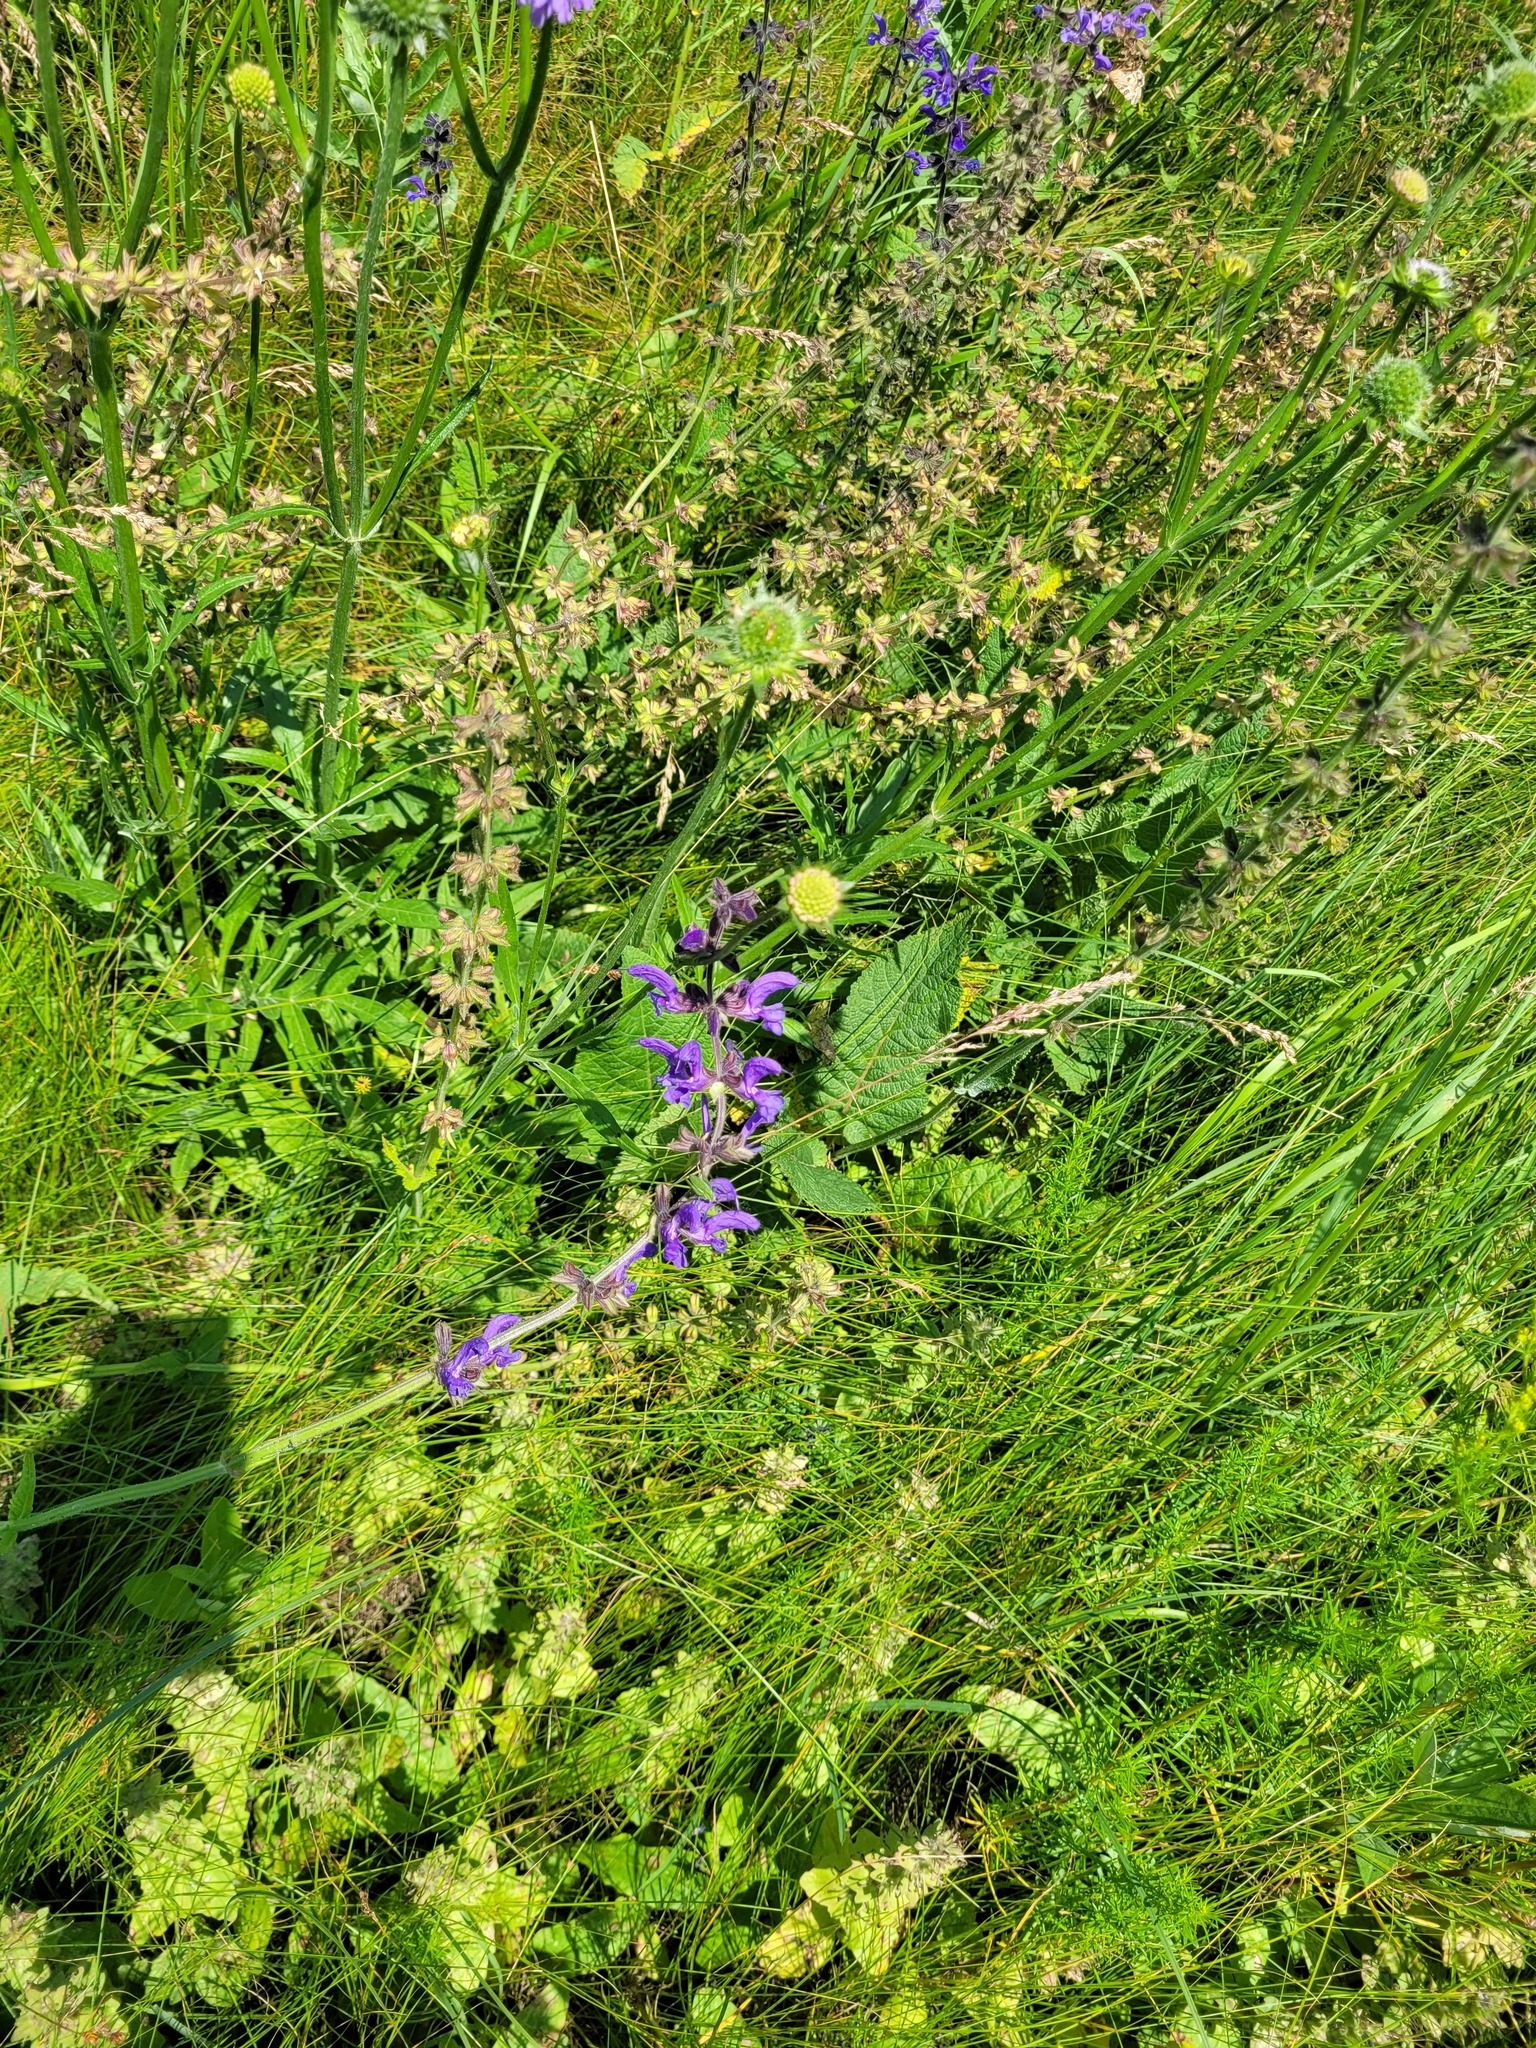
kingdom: Plantae
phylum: Tracheophyta
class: Magnoliopsida
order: Lamiales
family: Lamiaceae
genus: Salvia
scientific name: Salvia pratensis
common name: Meadow sage
